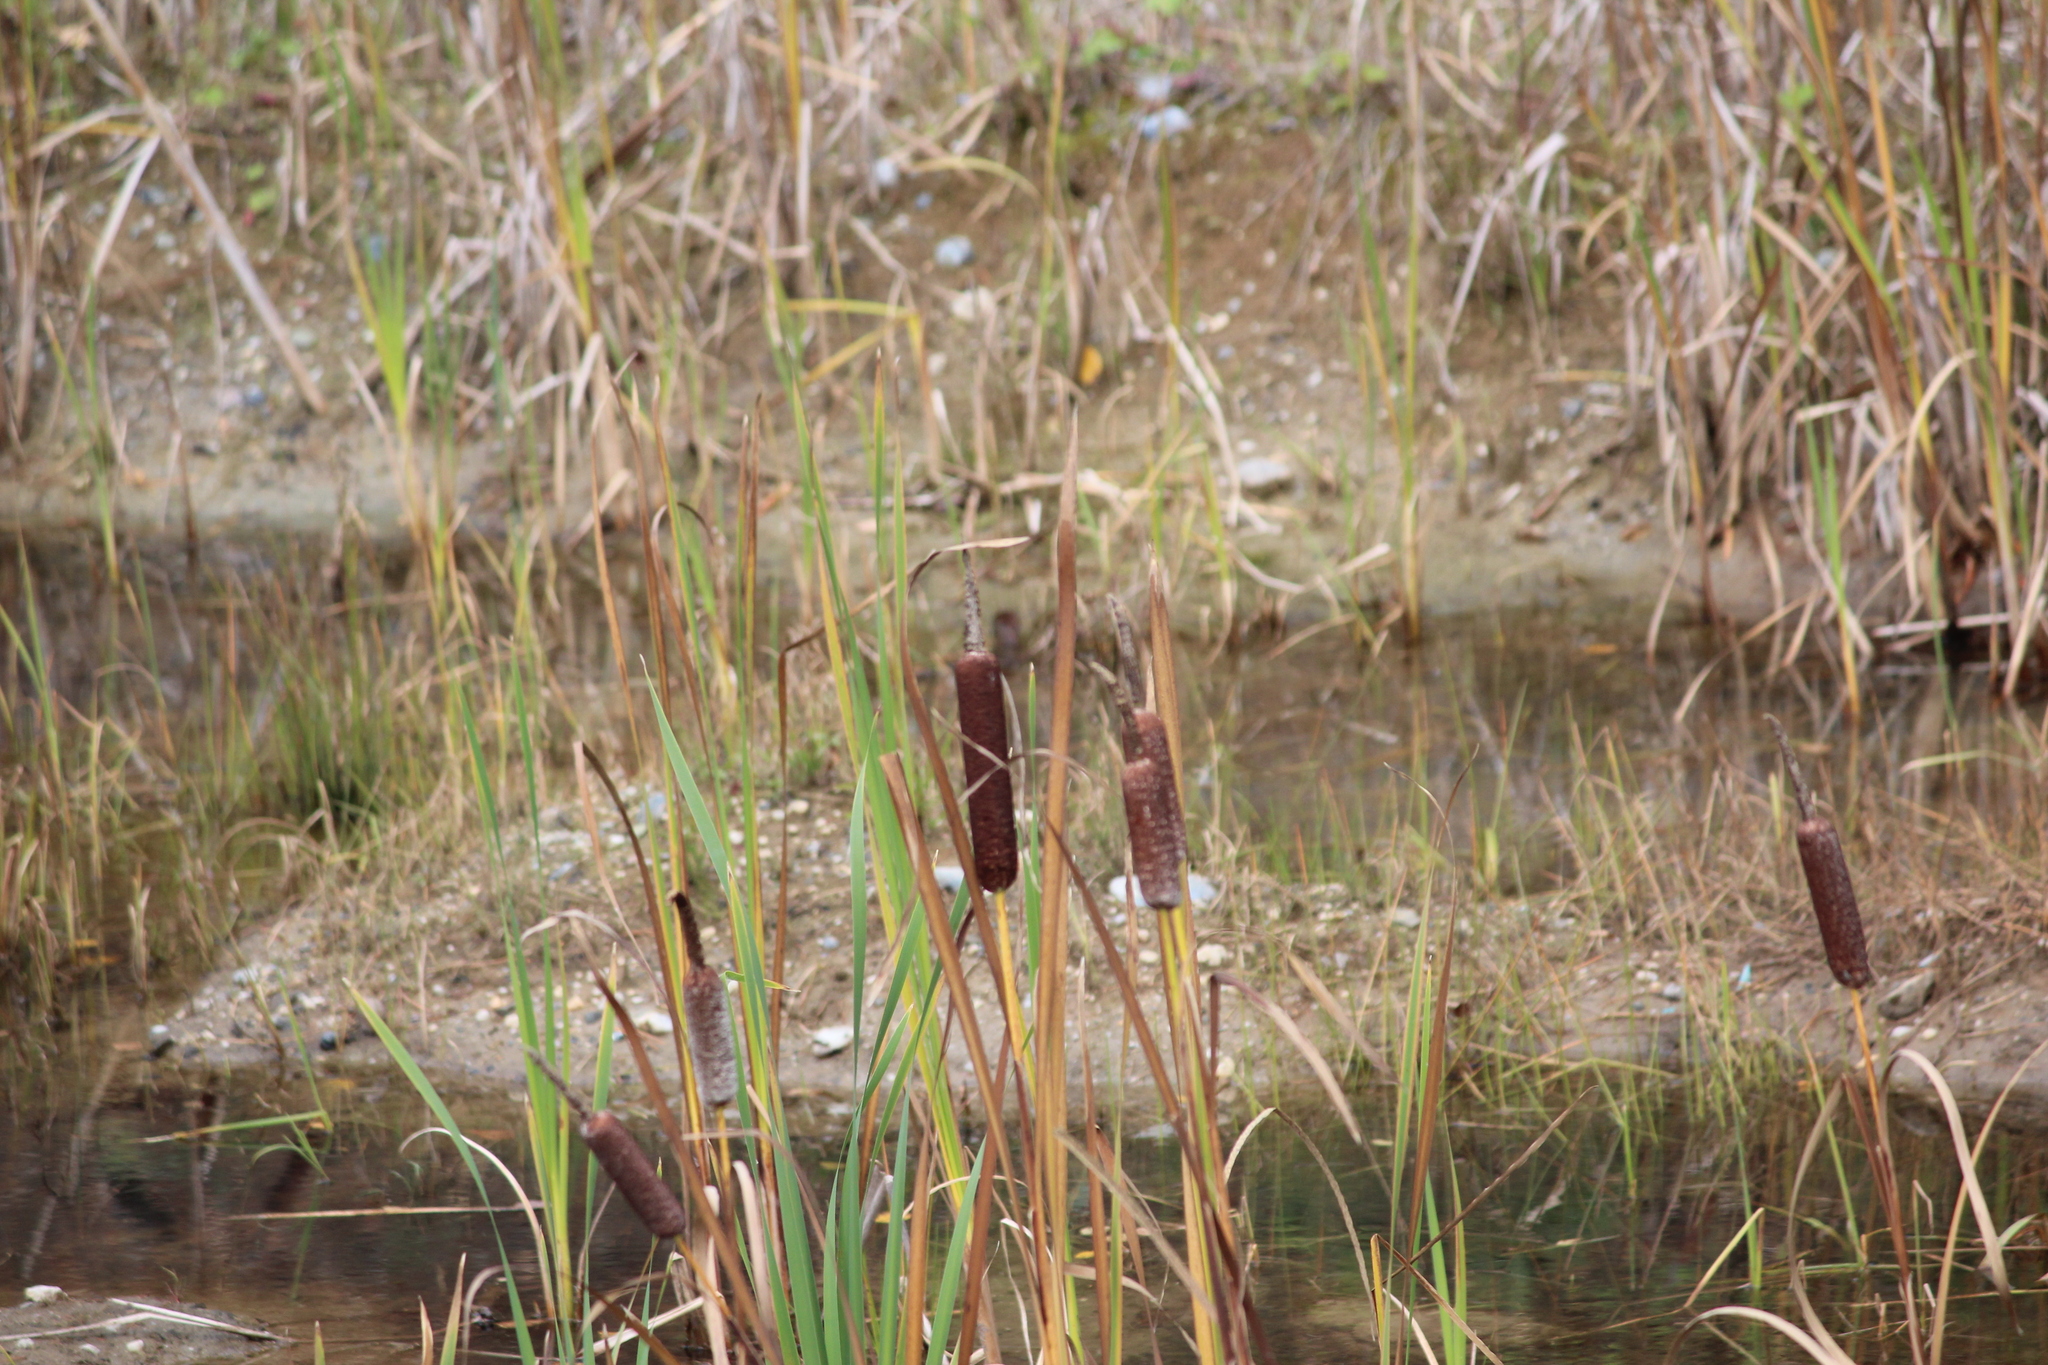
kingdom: Plantae
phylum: Tracheophyta
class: Liliopsida
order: Poales
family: Typhaceae
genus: Typha
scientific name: Typha latifolia
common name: Broadleaf cattail
